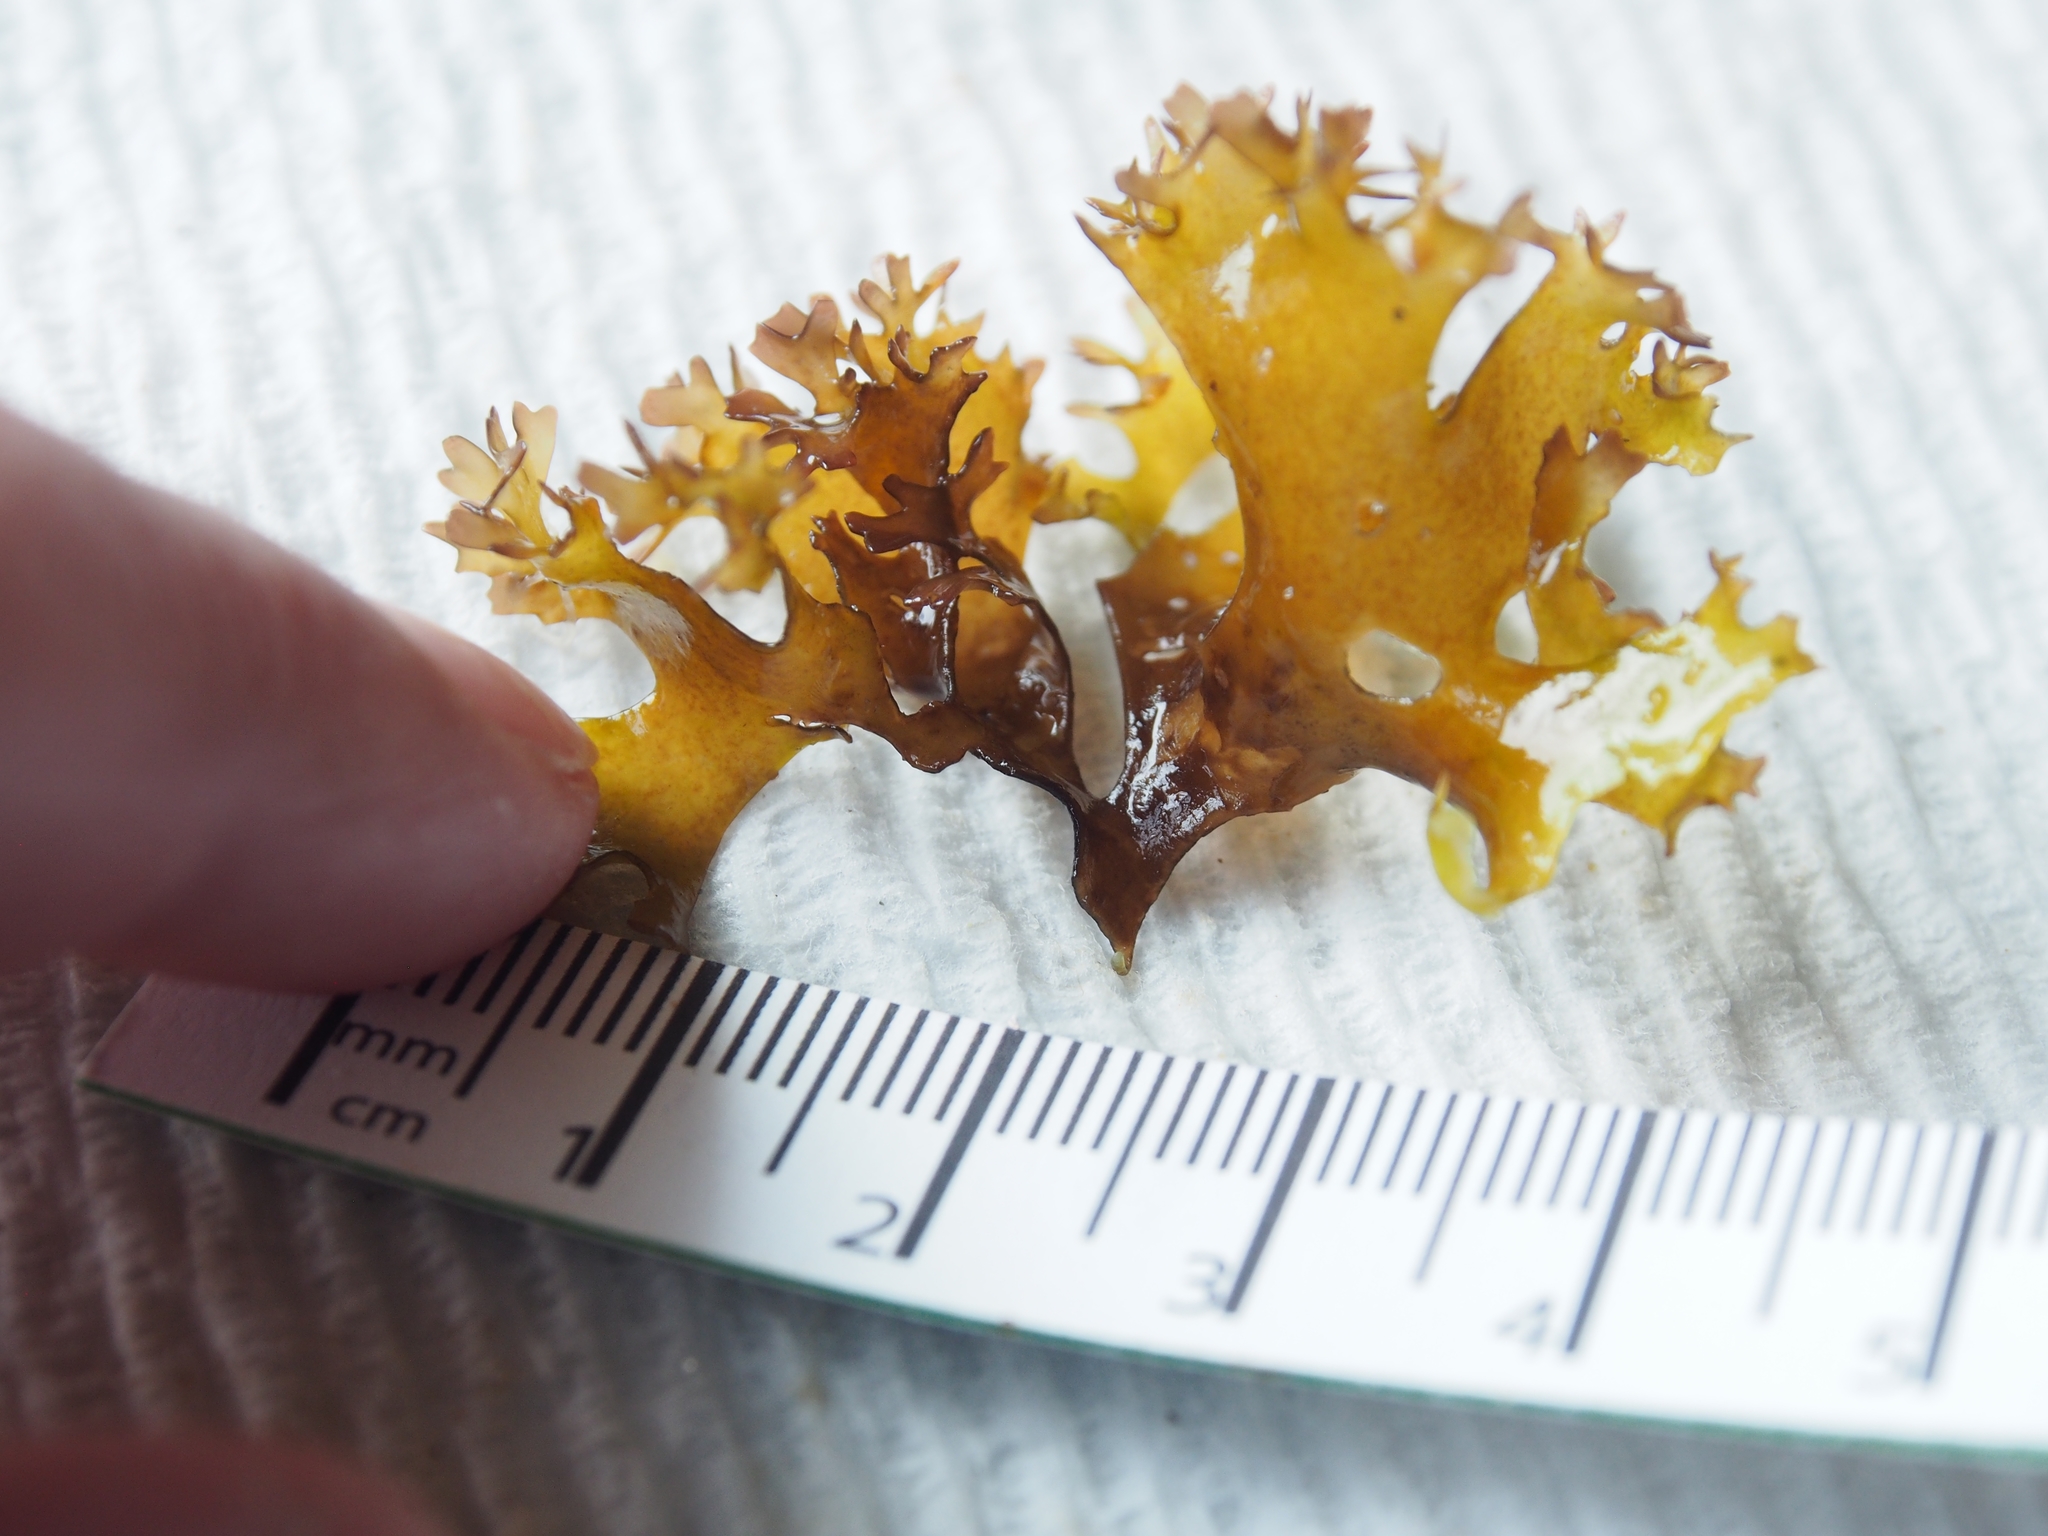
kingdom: Plantae
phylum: Rhodophyta
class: Florideophyceae
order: Gigartinales
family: Gigartinaceae
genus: Chondrus
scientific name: Chondrus crispus
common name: Carrageen
